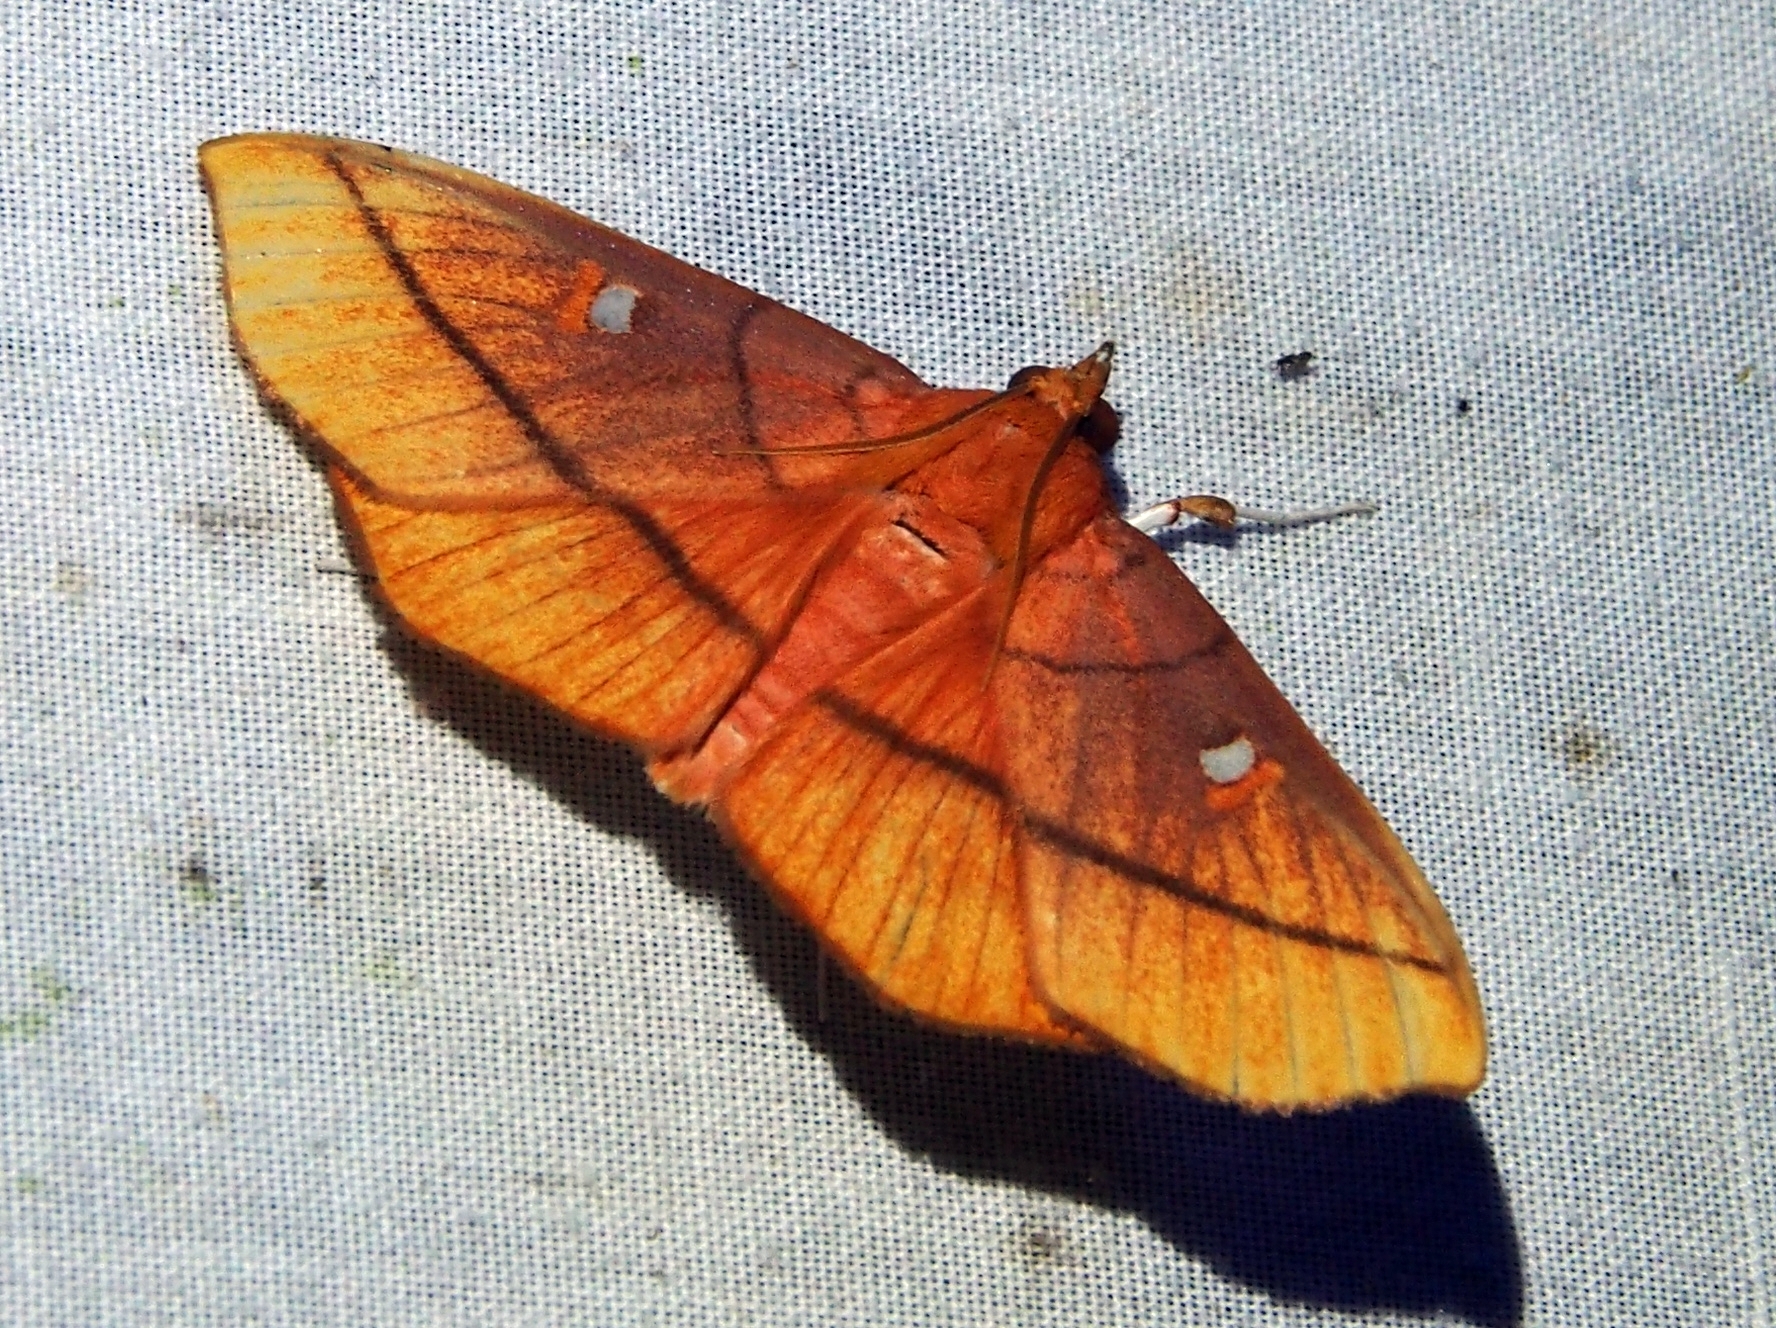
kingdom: Animalia
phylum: Arthropoda
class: Insecta
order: Lepidoptera
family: Crambidae
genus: Midila
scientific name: Midila daphne
